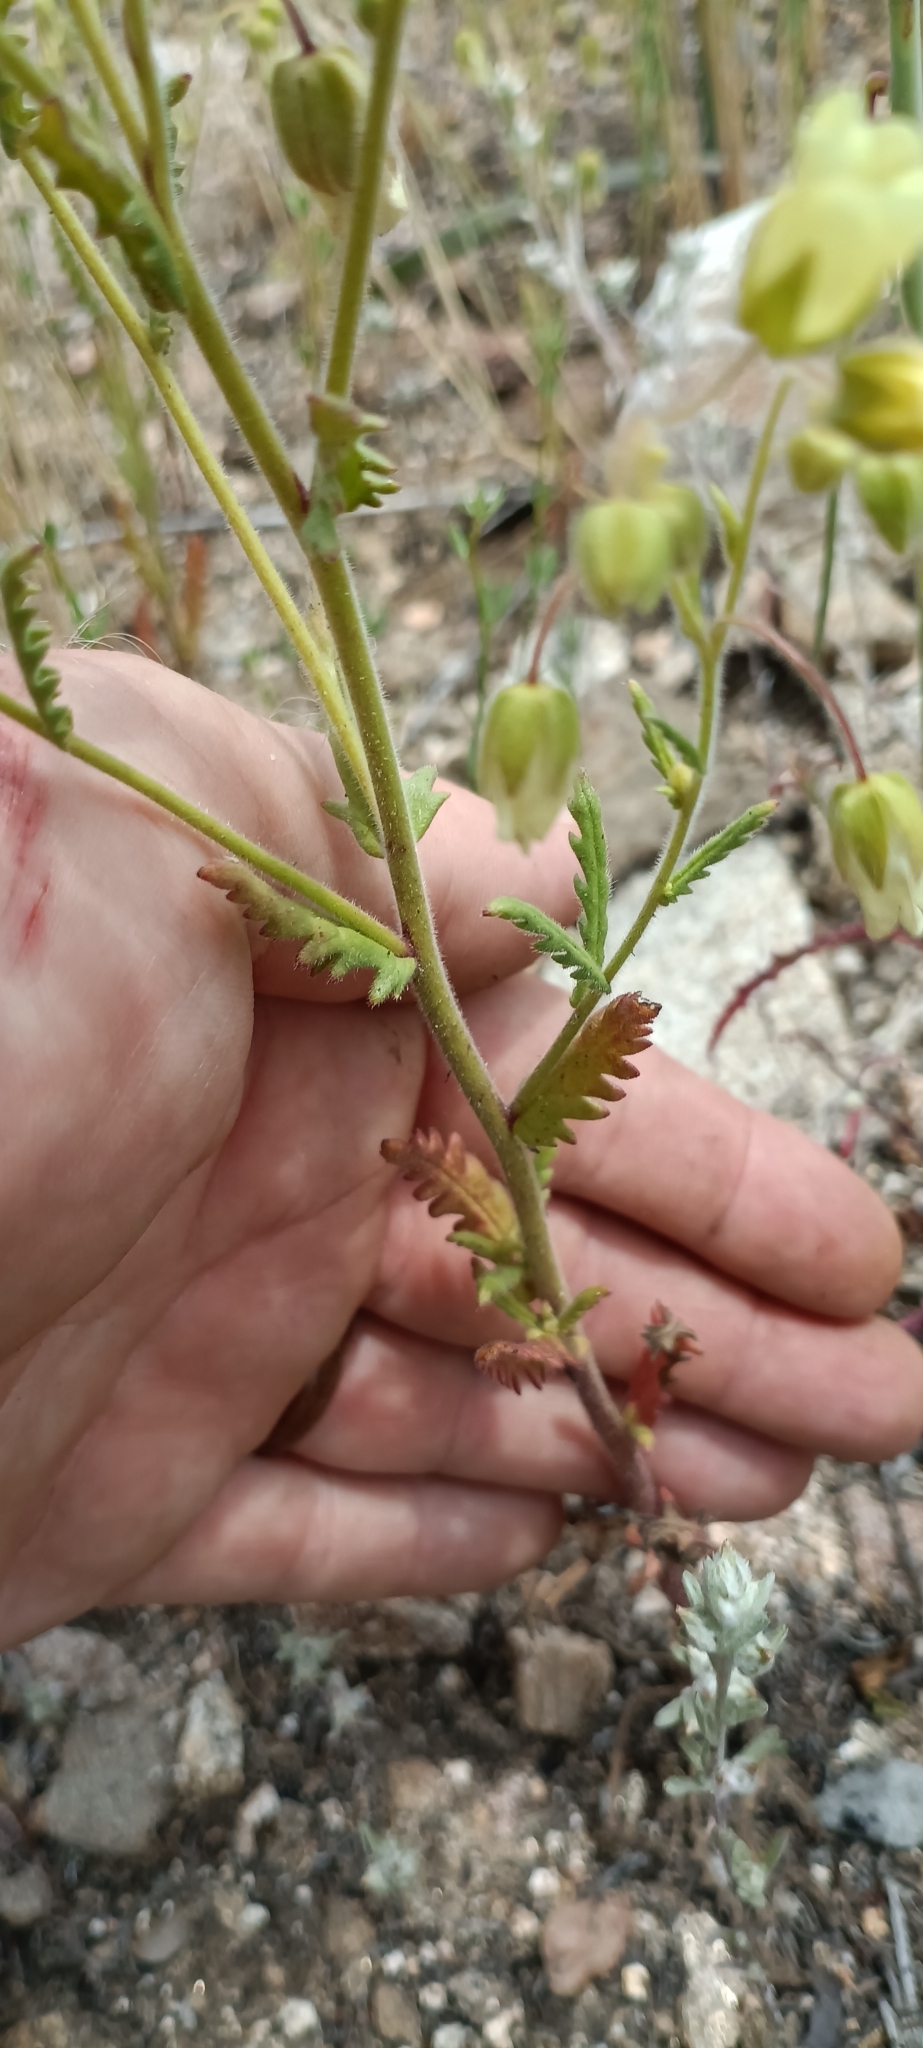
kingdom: Plantae
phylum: Tracheophyta
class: Magnoliopsida
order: Myrtales
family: Onagraceae
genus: Eulobus
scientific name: Eulobus californicus
